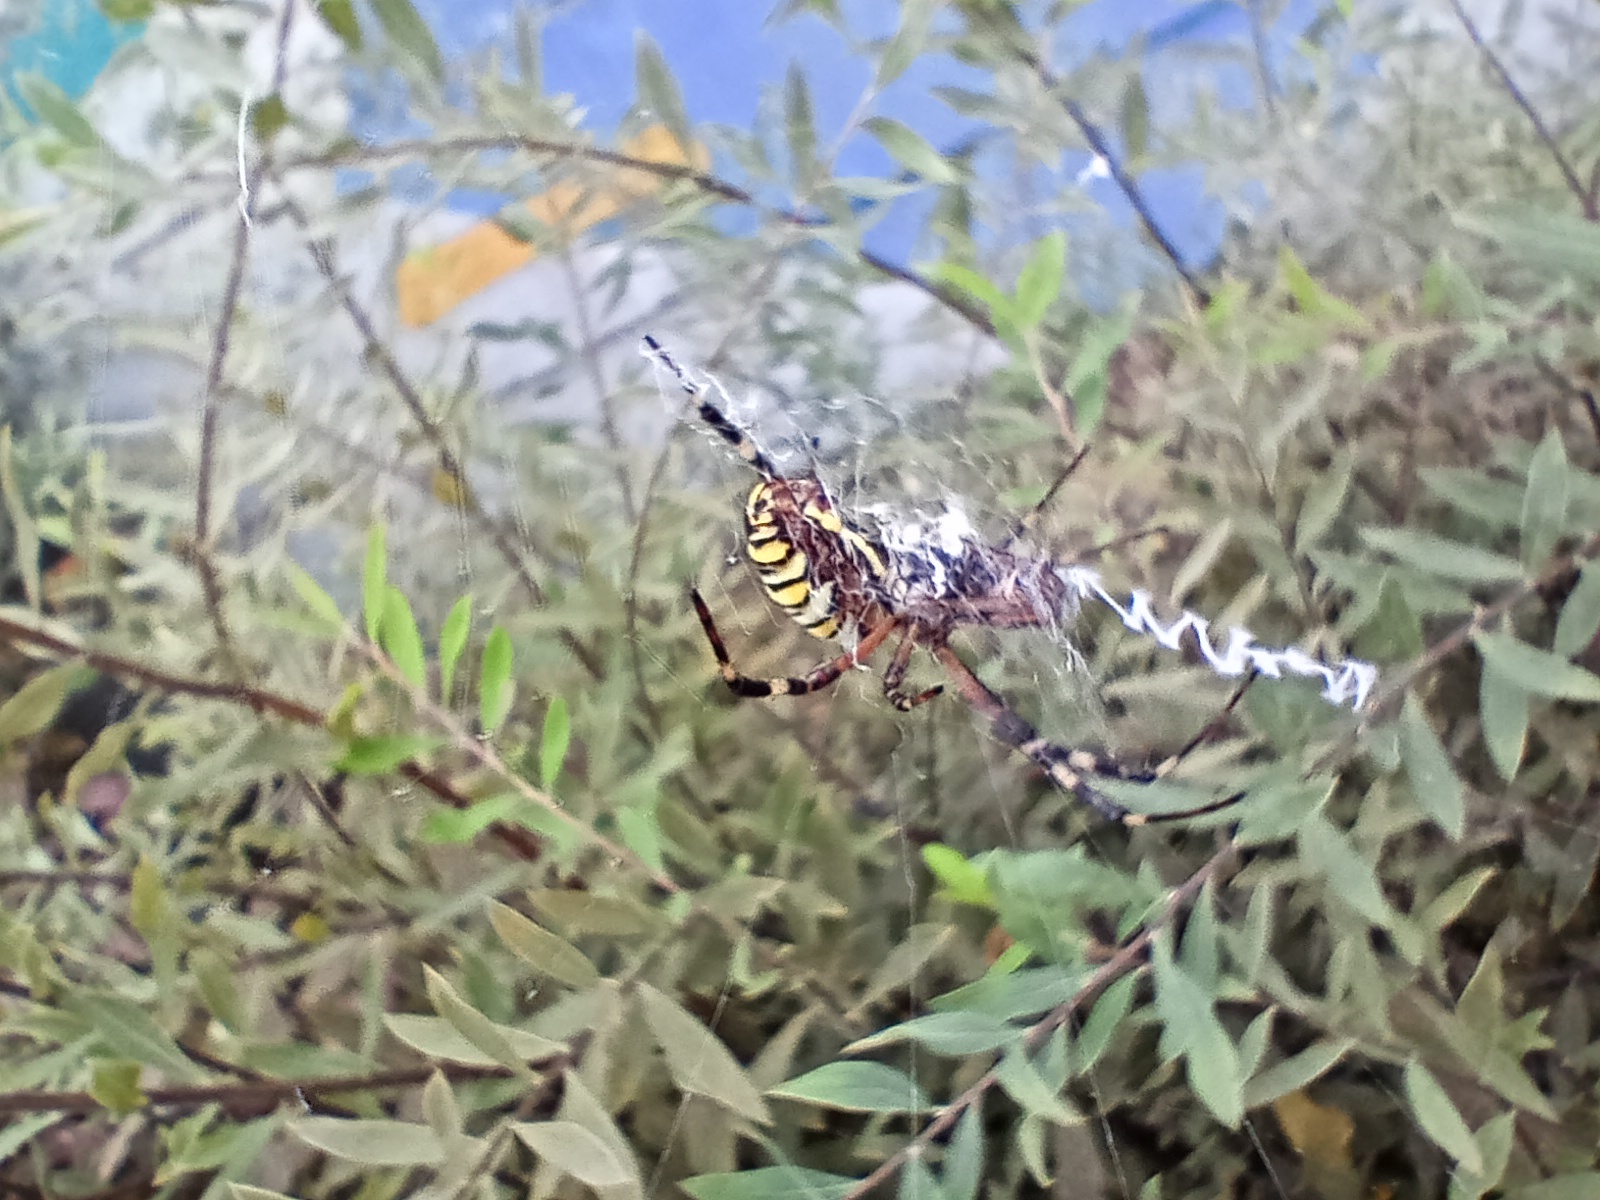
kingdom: Animalia
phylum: Arthropoda
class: Arachnida
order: Araneae
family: Araneidae
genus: Argiope
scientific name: Argiope bruennichi
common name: Wasp spider
